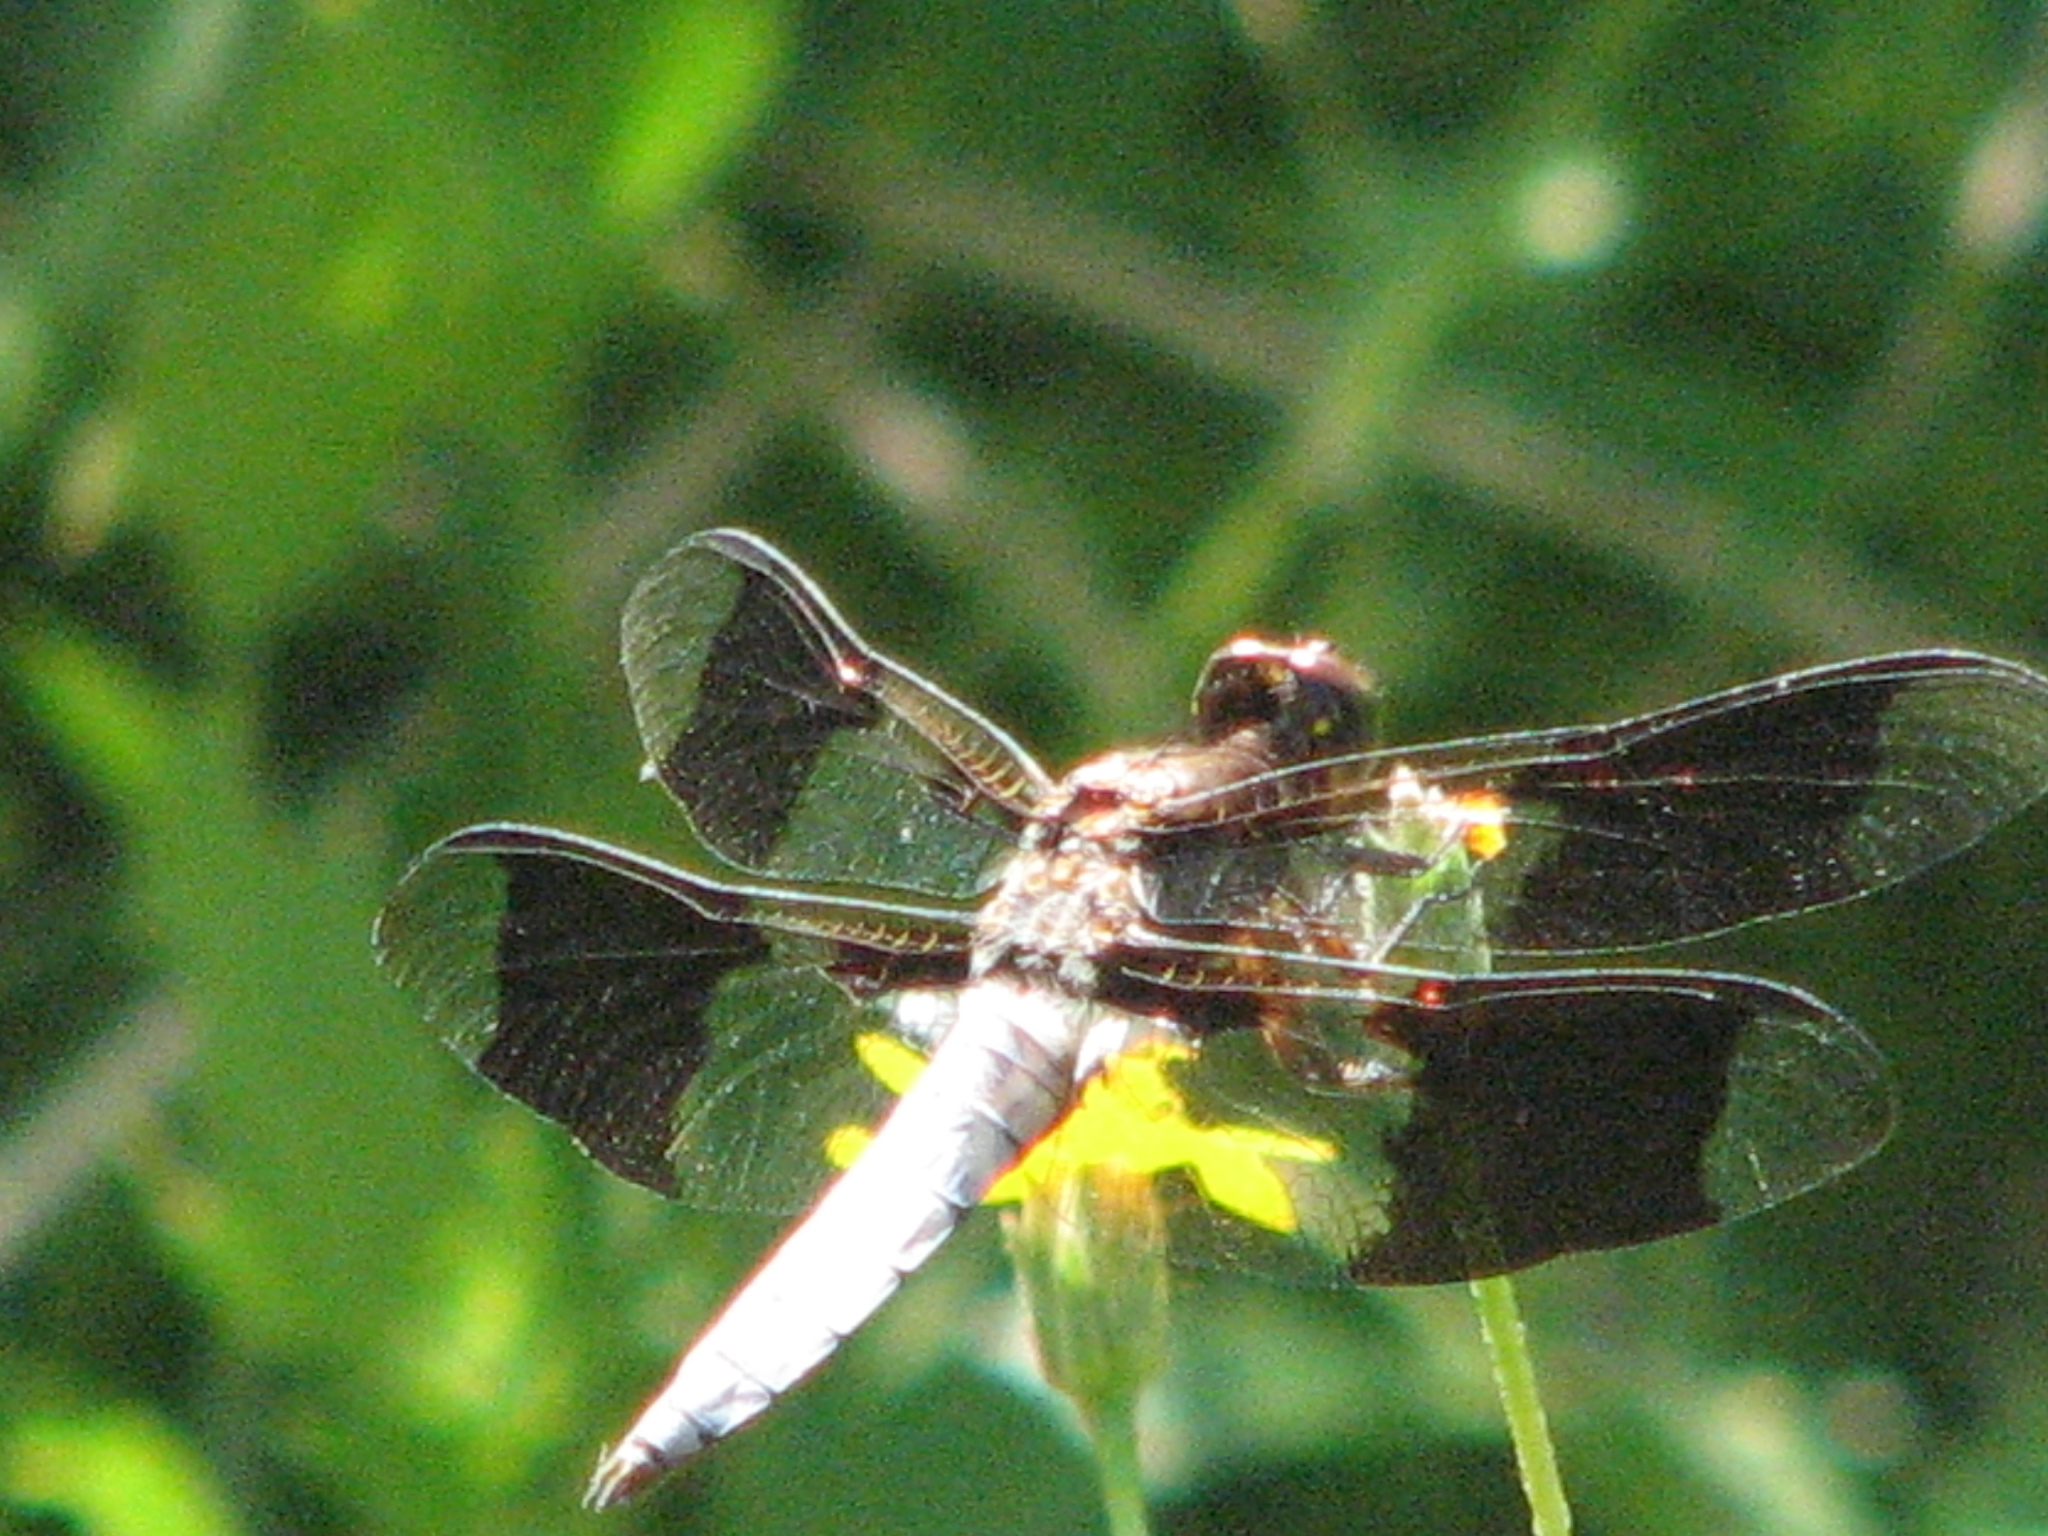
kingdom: Animalia
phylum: Arthropoda
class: Insecta
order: Odonata
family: Libellulidae
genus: Plathemis
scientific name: Plathemis lydia
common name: Common whitetail
